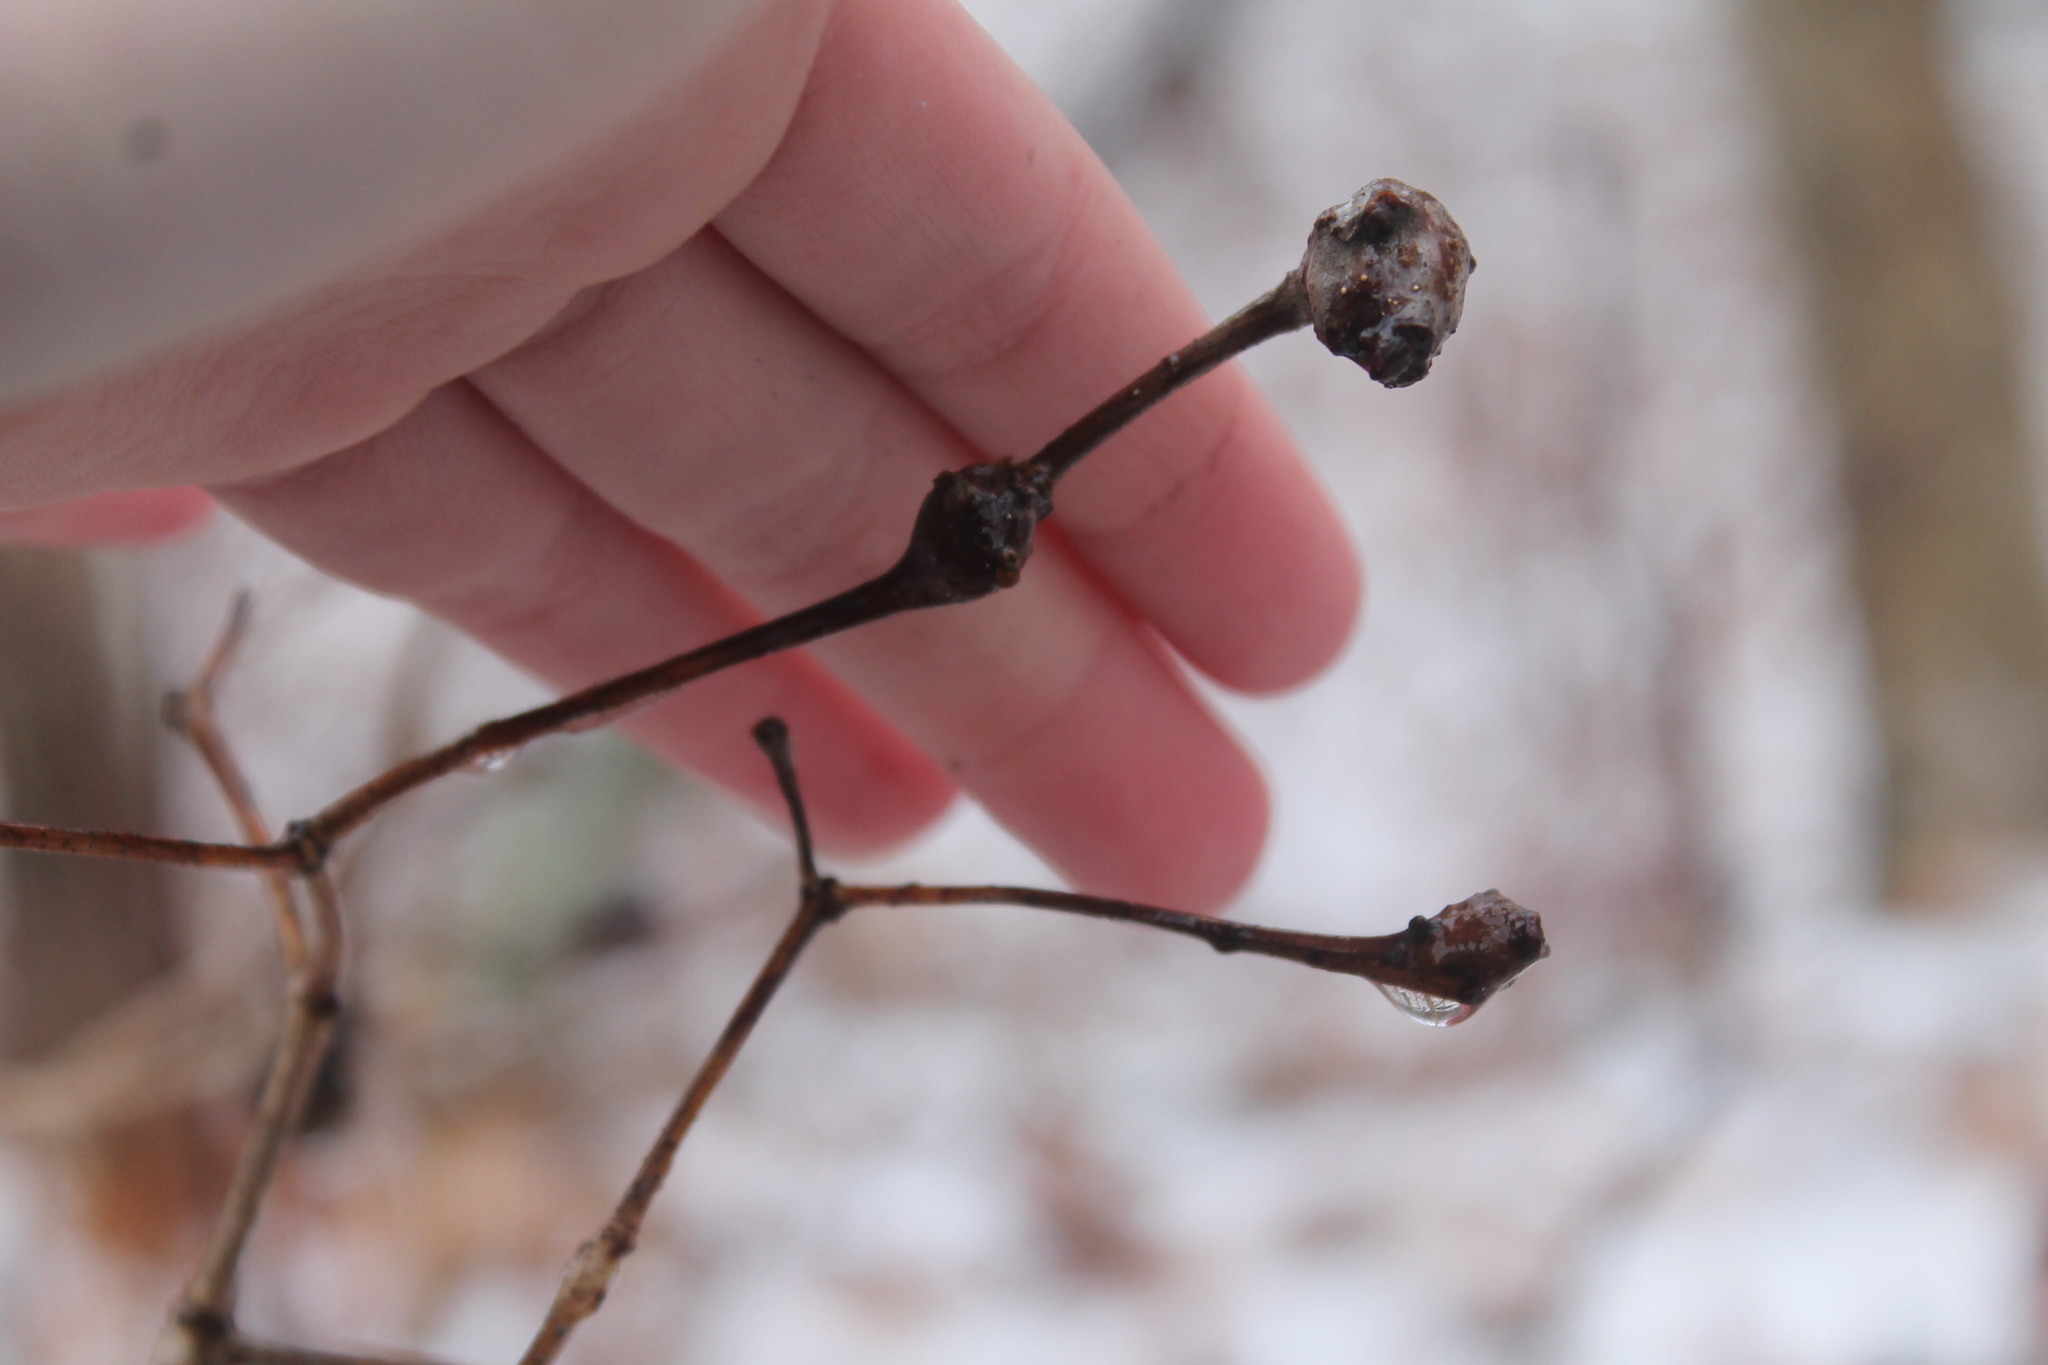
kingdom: Animalia
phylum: Arthropoda
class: Insecta
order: Hymenoptera
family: Cynipidae
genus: Callirhytis
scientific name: Callirhytis clavula
